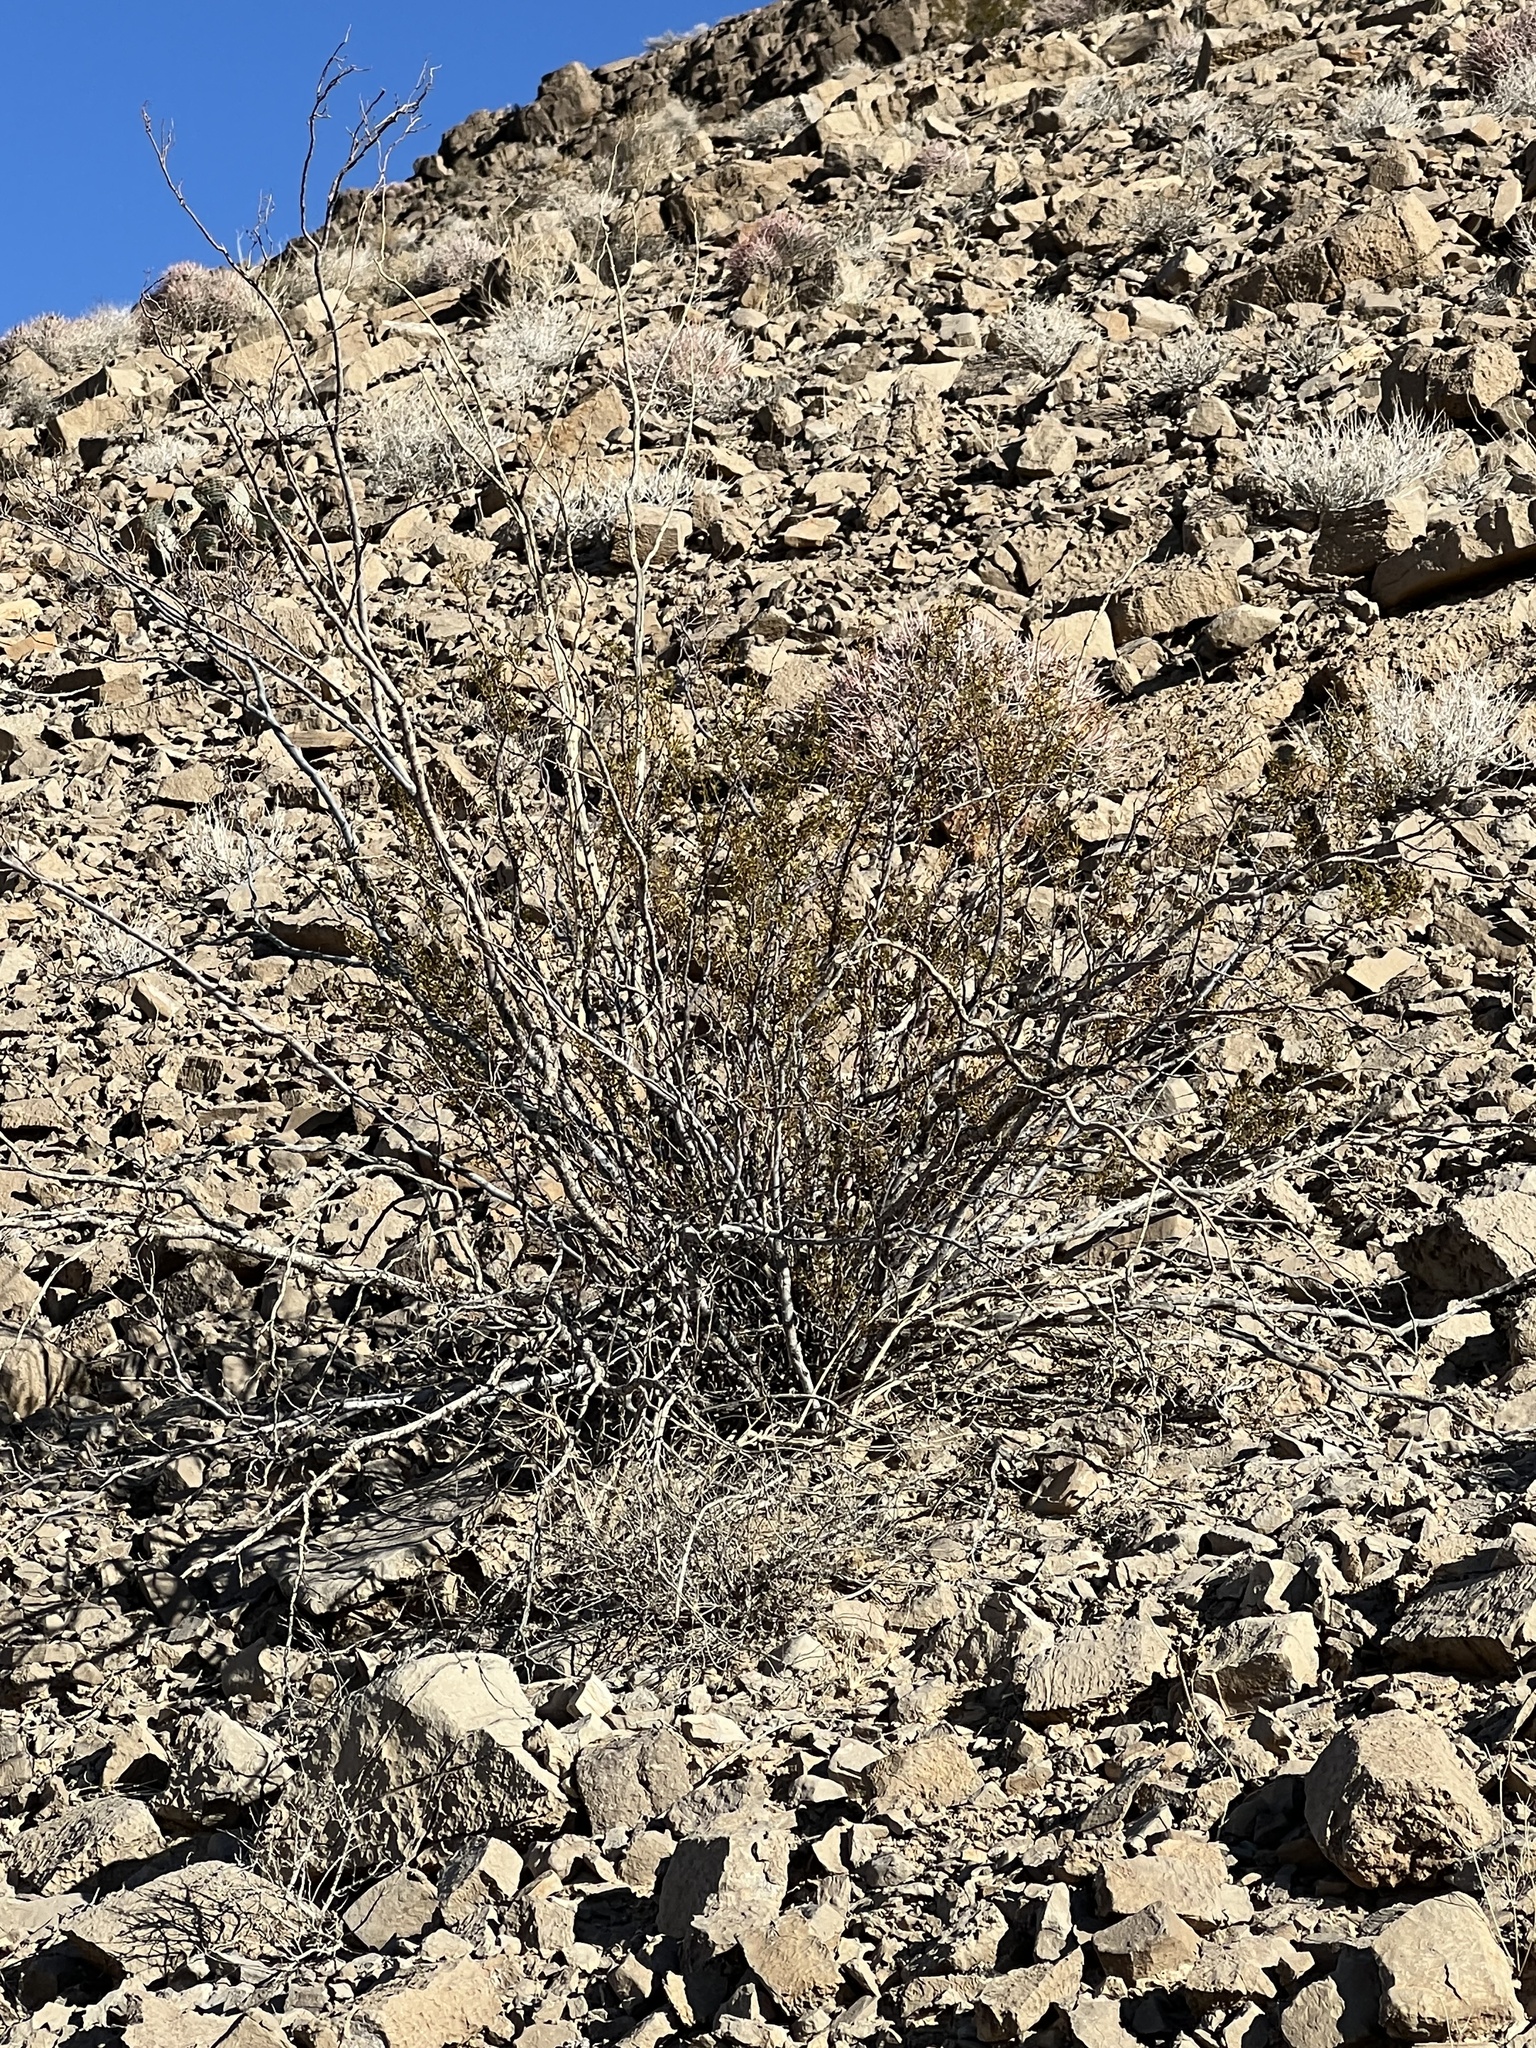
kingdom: Plantae
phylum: Tracheophyta
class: Magnoliopsida
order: Zygophyllales
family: Zygophyllaceae
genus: Larrea
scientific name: Larrea tridentata
